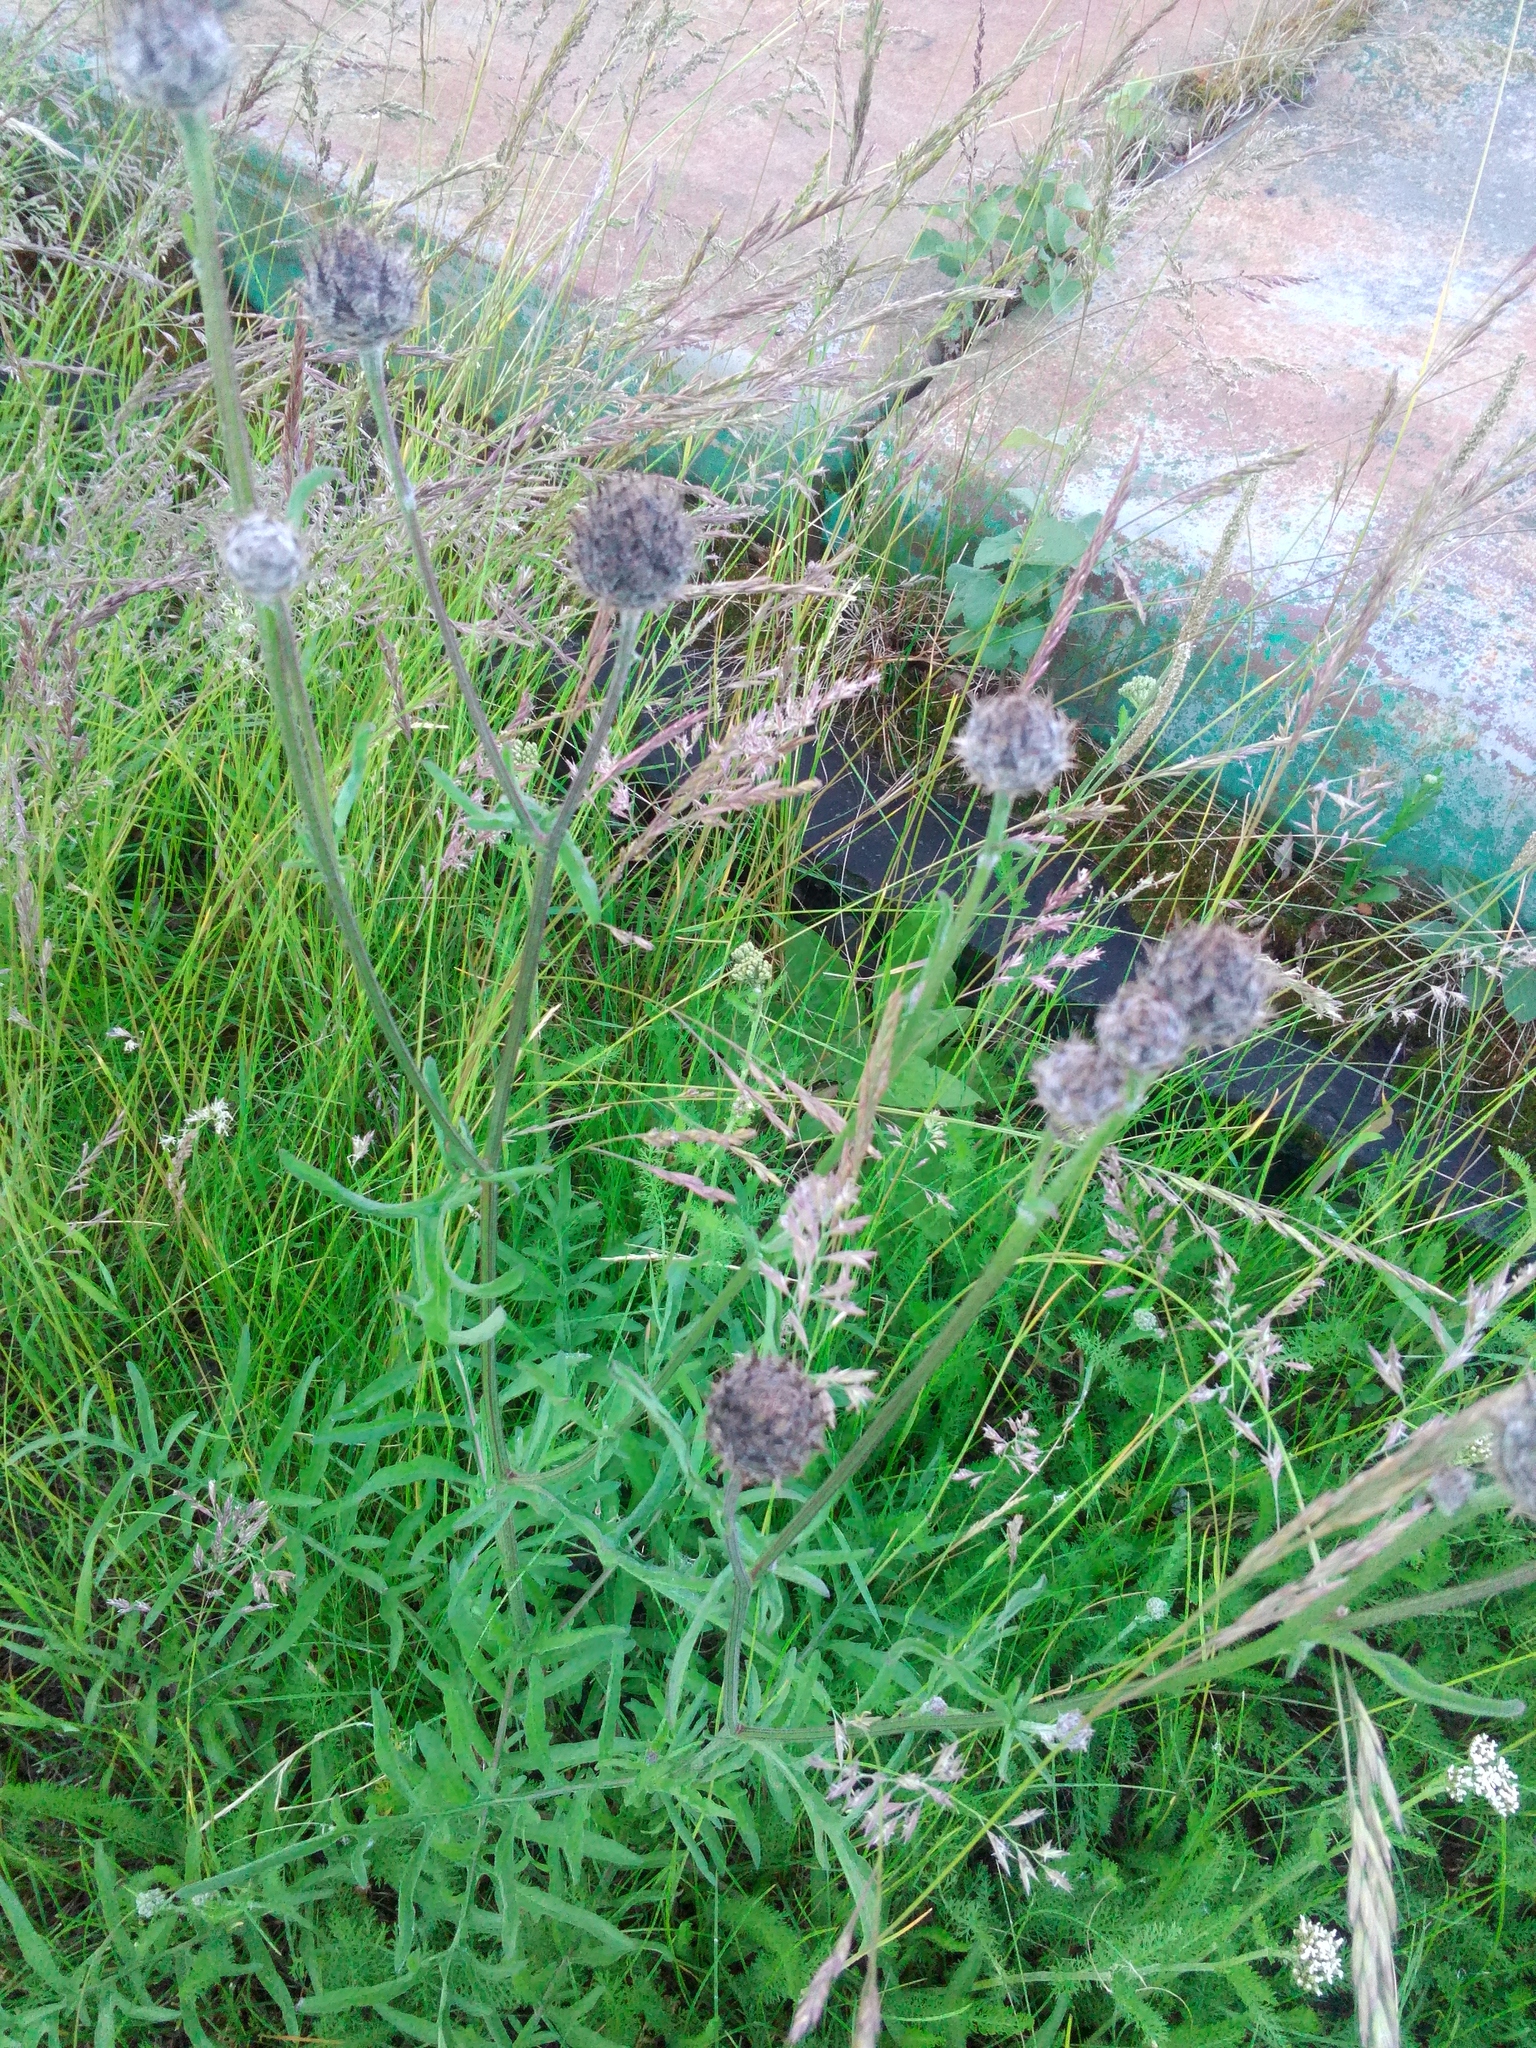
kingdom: Plantae
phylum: Tracheophyta
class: Magnoliopsida
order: Asterales
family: Asteraceae
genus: Centaurea
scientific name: Centaurea scabiosa
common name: Greater knapweed
